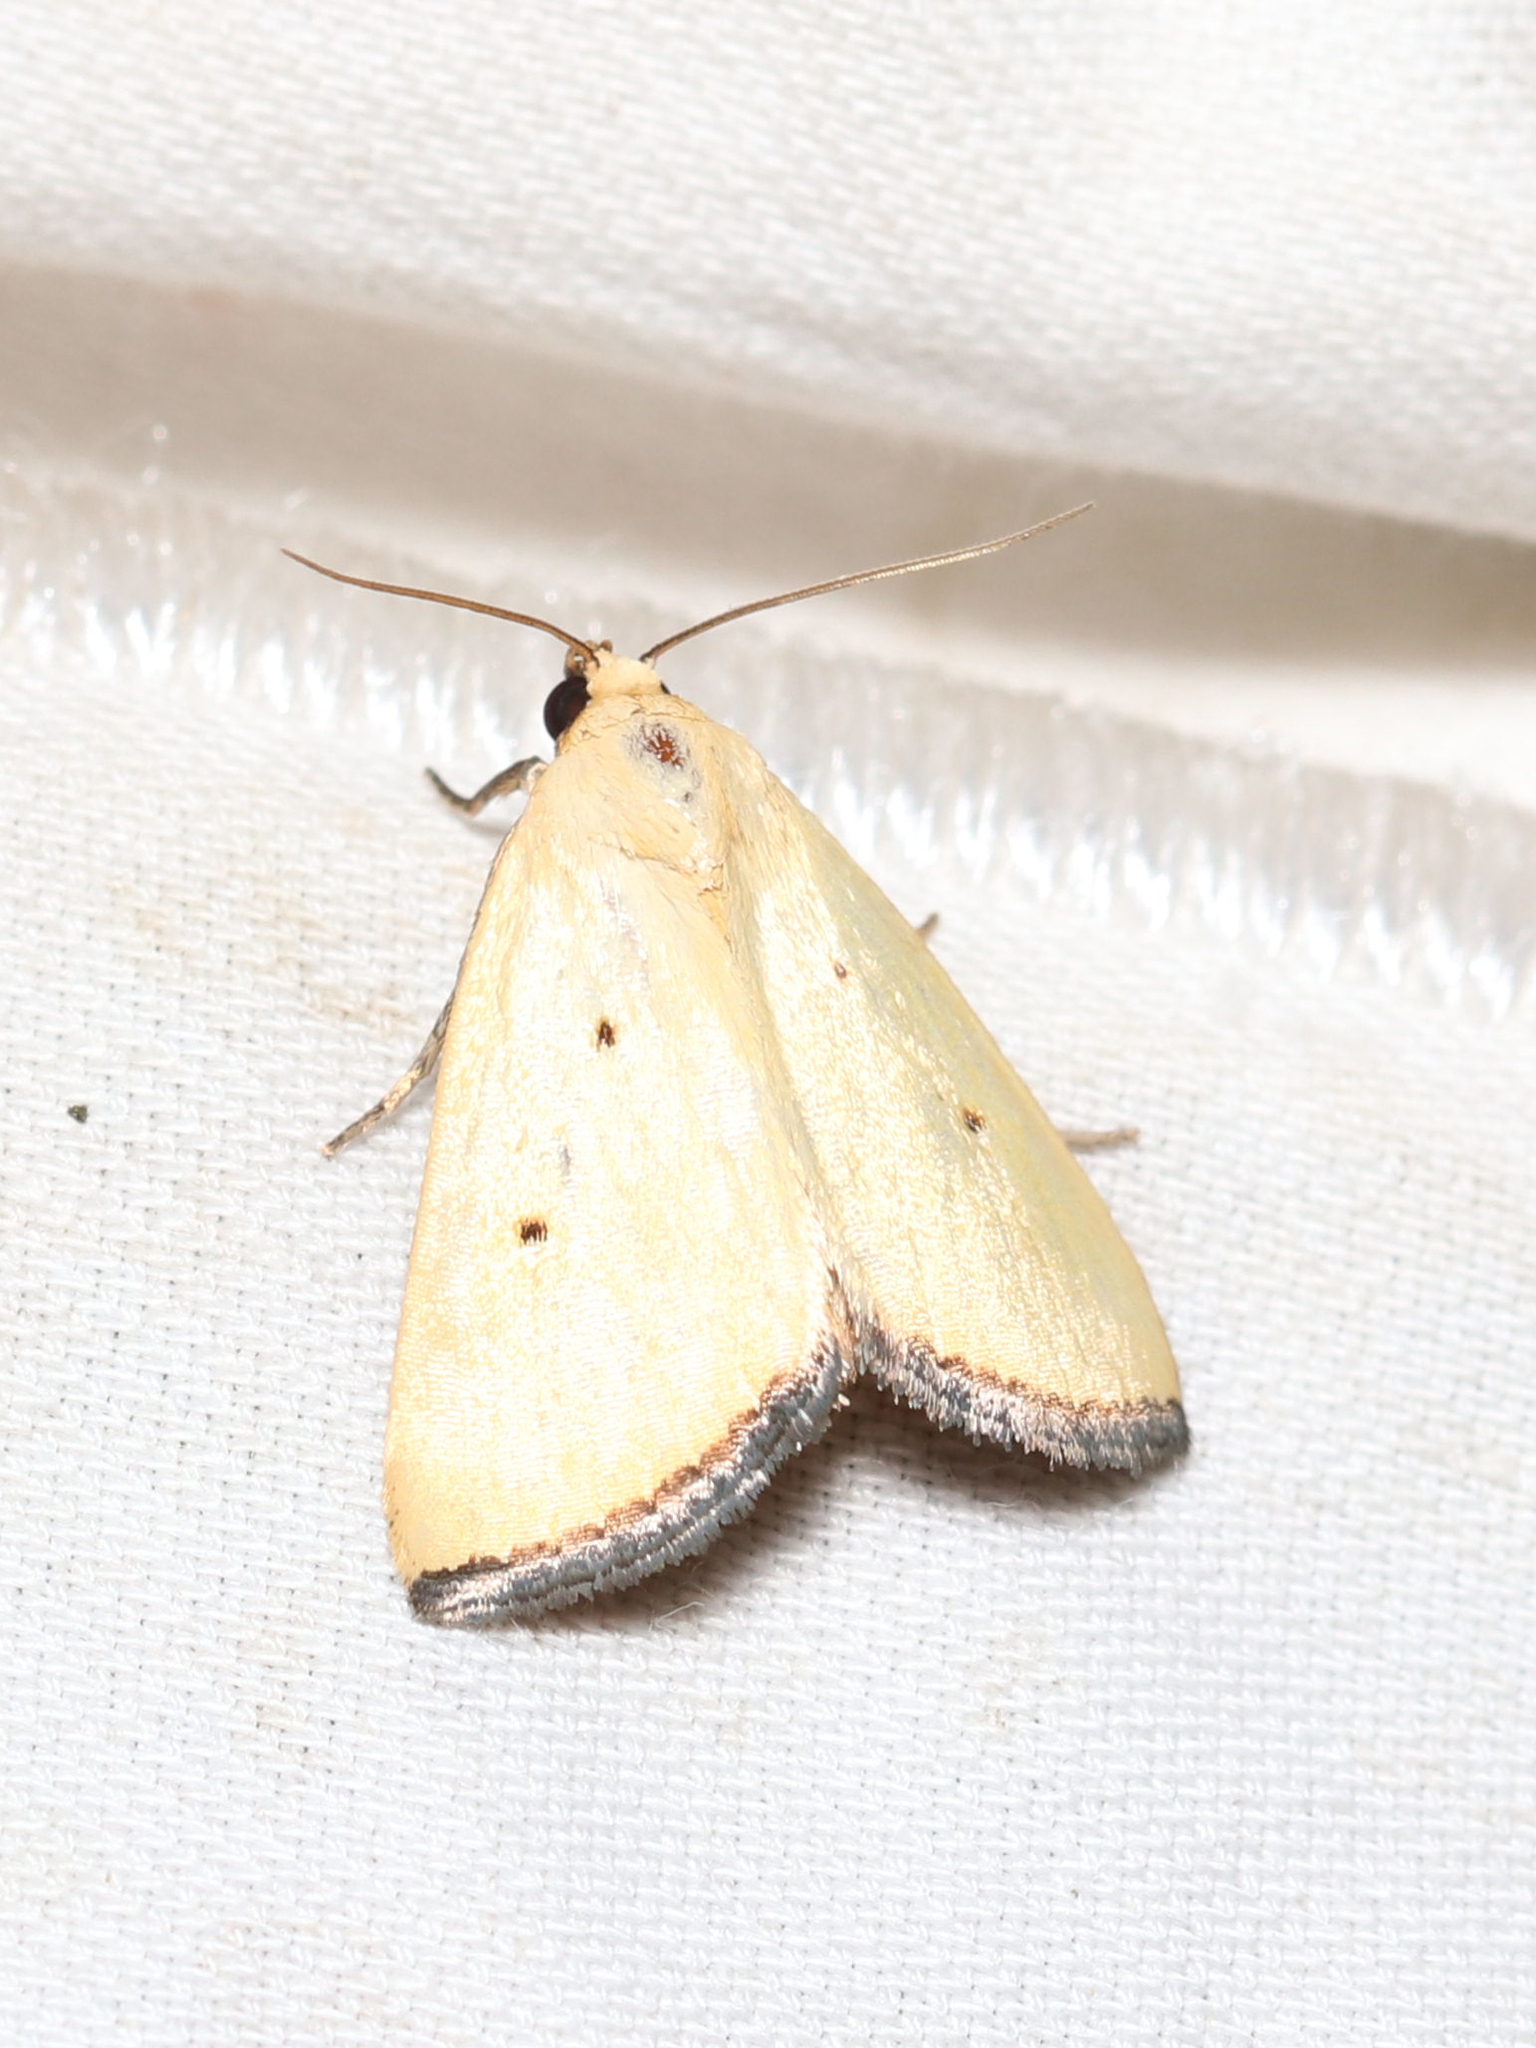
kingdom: Animalia
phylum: Arthropoda
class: Insecta
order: Lepidoptera
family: Noctuidae
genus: Marimatha
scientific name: Marimatha nigrofimbria
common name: Black-bordered lemon moth
